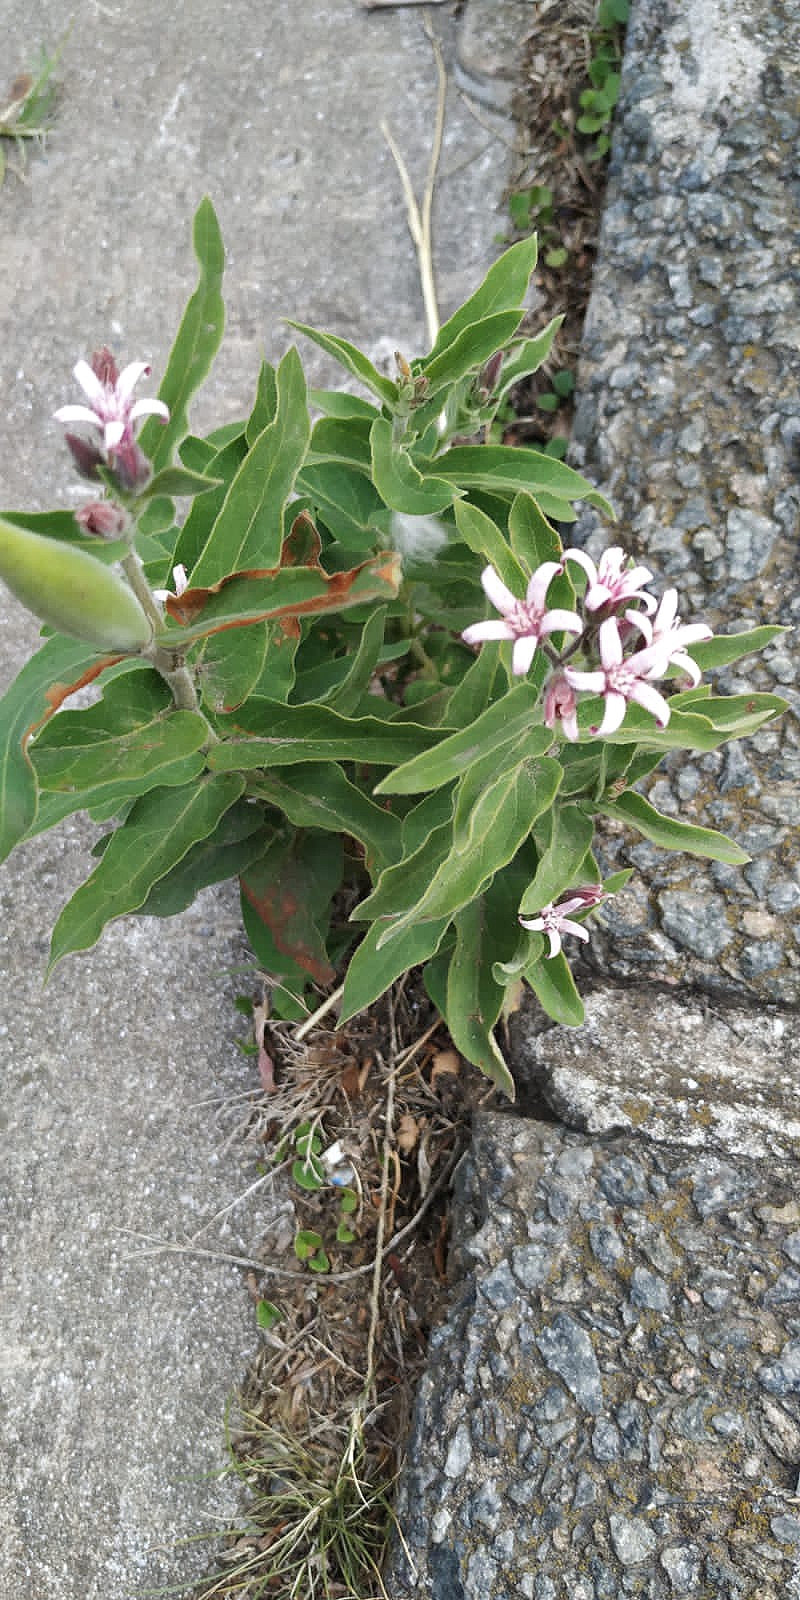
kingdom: Plantae
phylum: Tracheophyta
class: Magnoliopsida
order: Gentianales
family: Apocynaceae
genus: Oxypetalum
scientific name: Oxypetalum solanoides
